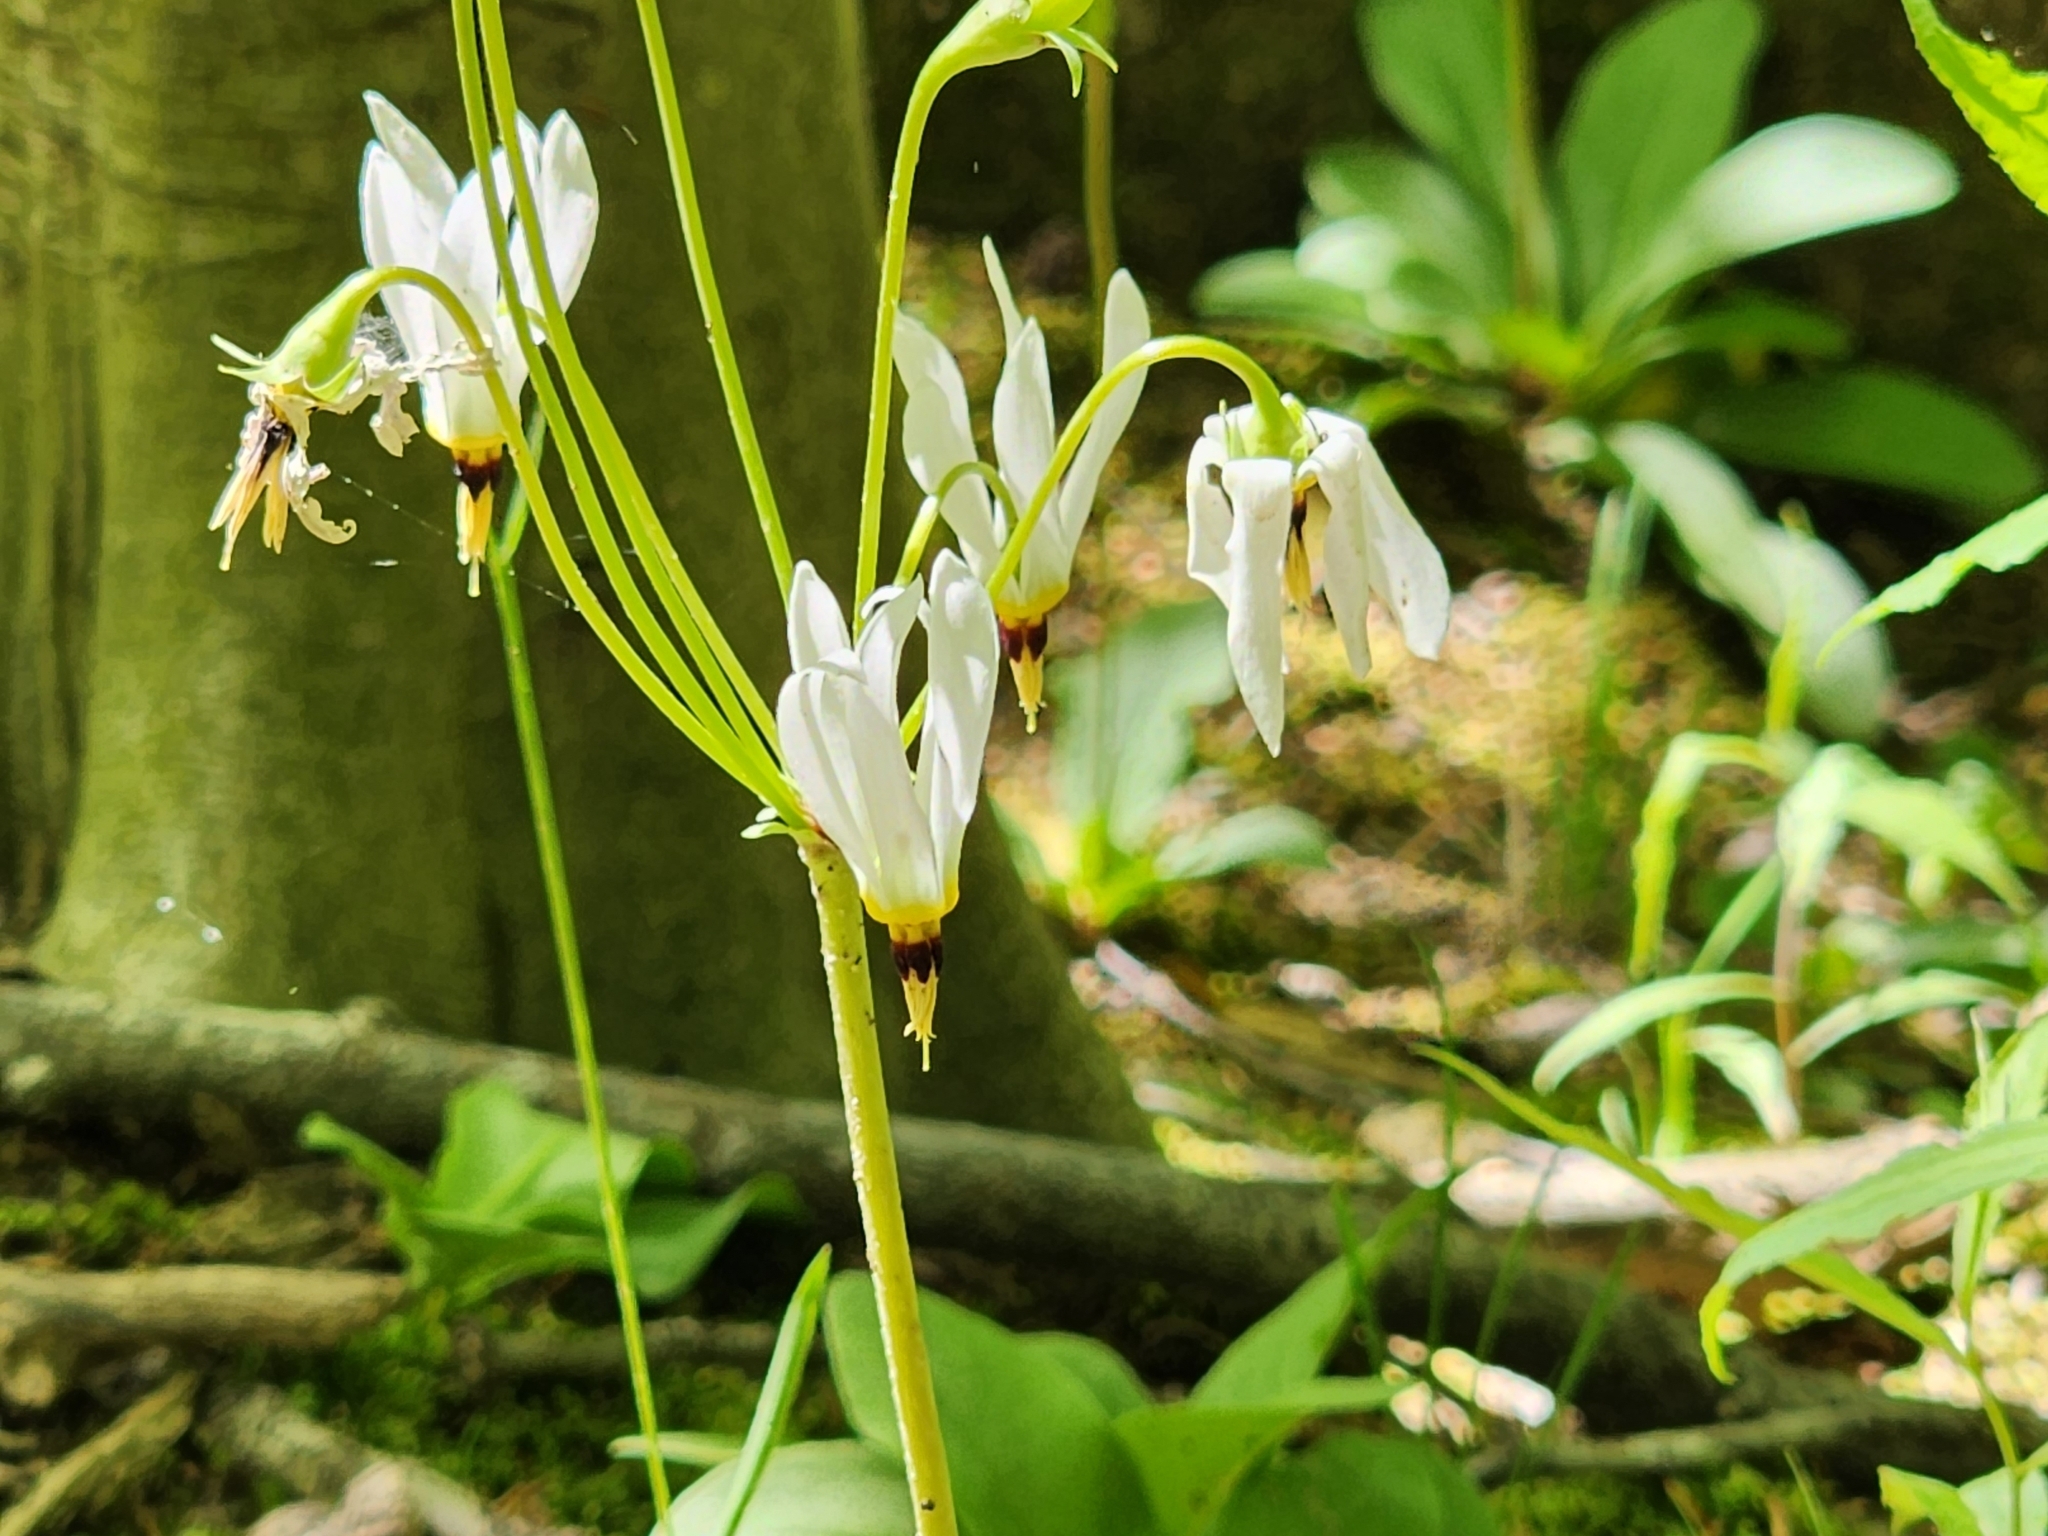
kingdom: Plantae
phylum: Tracheophyta
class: Magnoliopsida
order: Ericales
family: Primulaceae
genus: Dodecatheon
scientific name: Dodecatheon meadia
